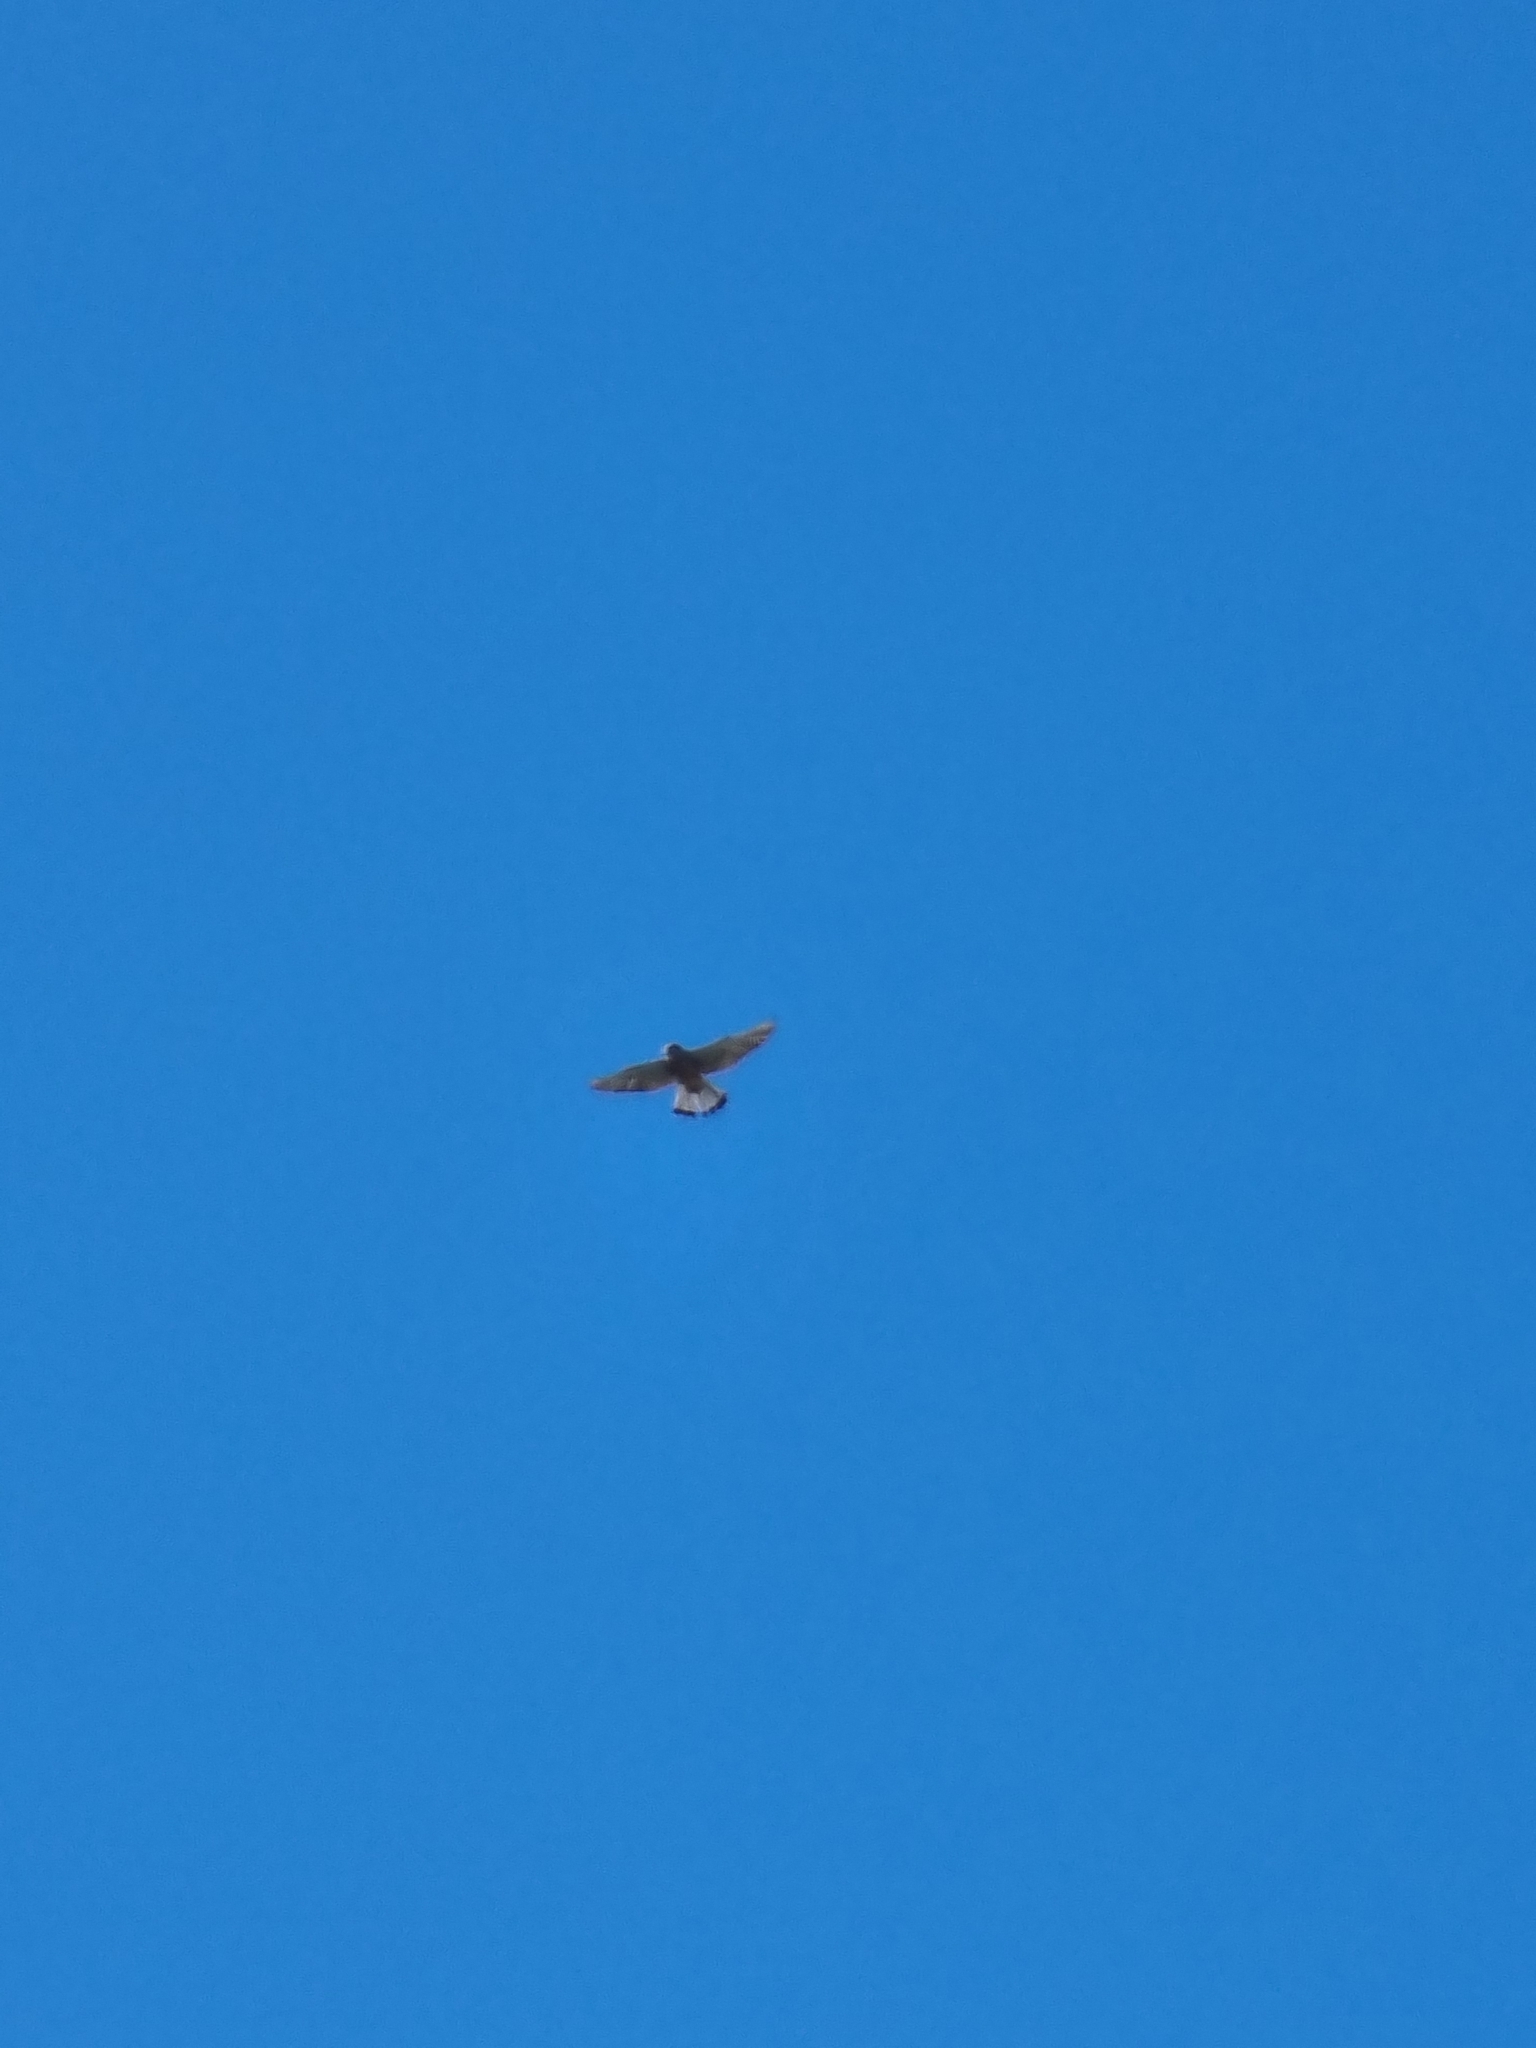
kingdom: Animalia
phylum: Chordata
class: Aves
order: Falconiformes
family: Falconidae
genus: Falco
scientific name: Falco tinnunculus
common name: Common kestrel
